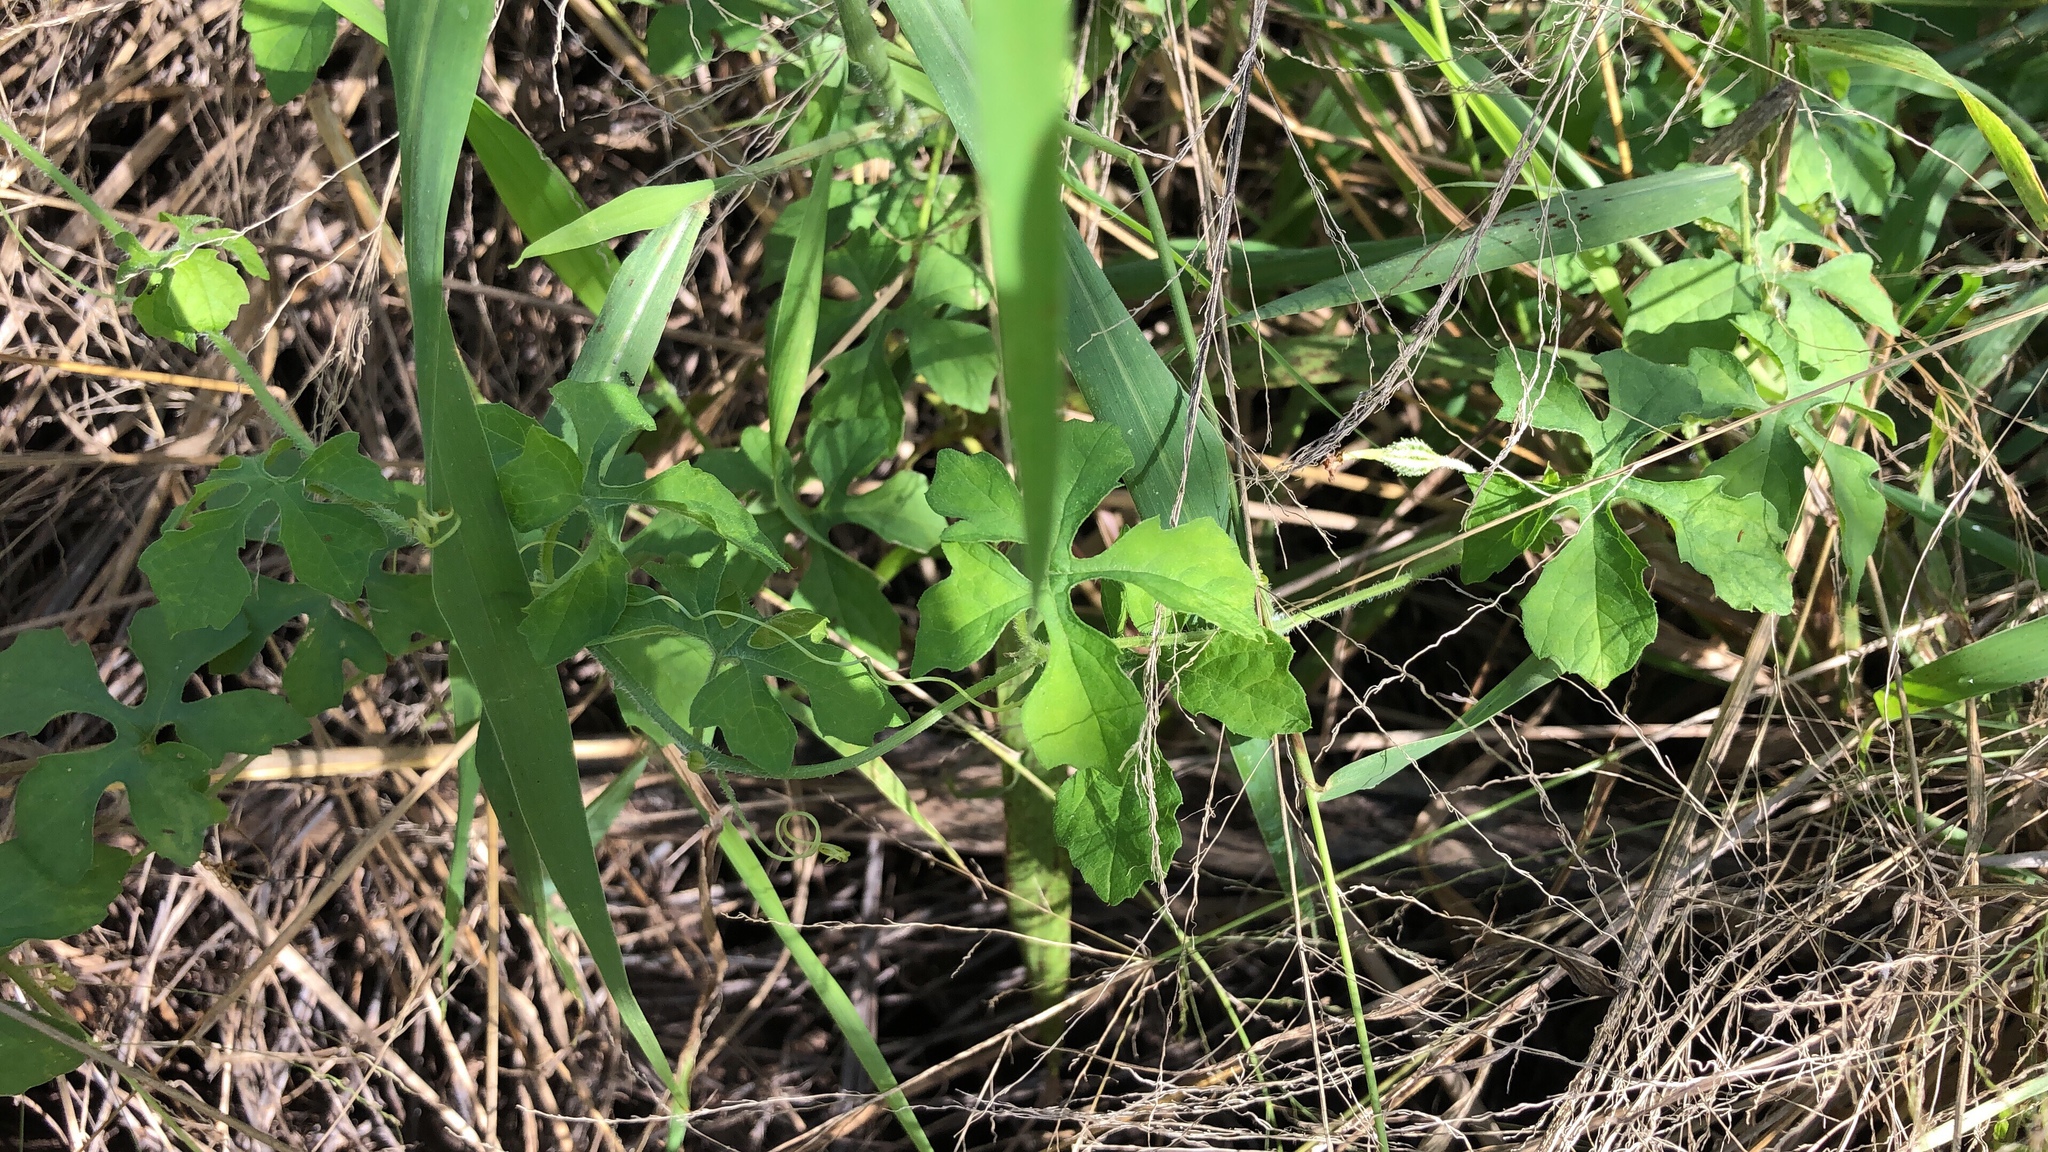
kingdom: Plantae
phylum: Tracheophyta
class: Magnoliopsida
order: Cucurbitales
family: Cucurbitaceae
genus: Momordica
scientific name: Momordica charantia
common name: Balsampear
